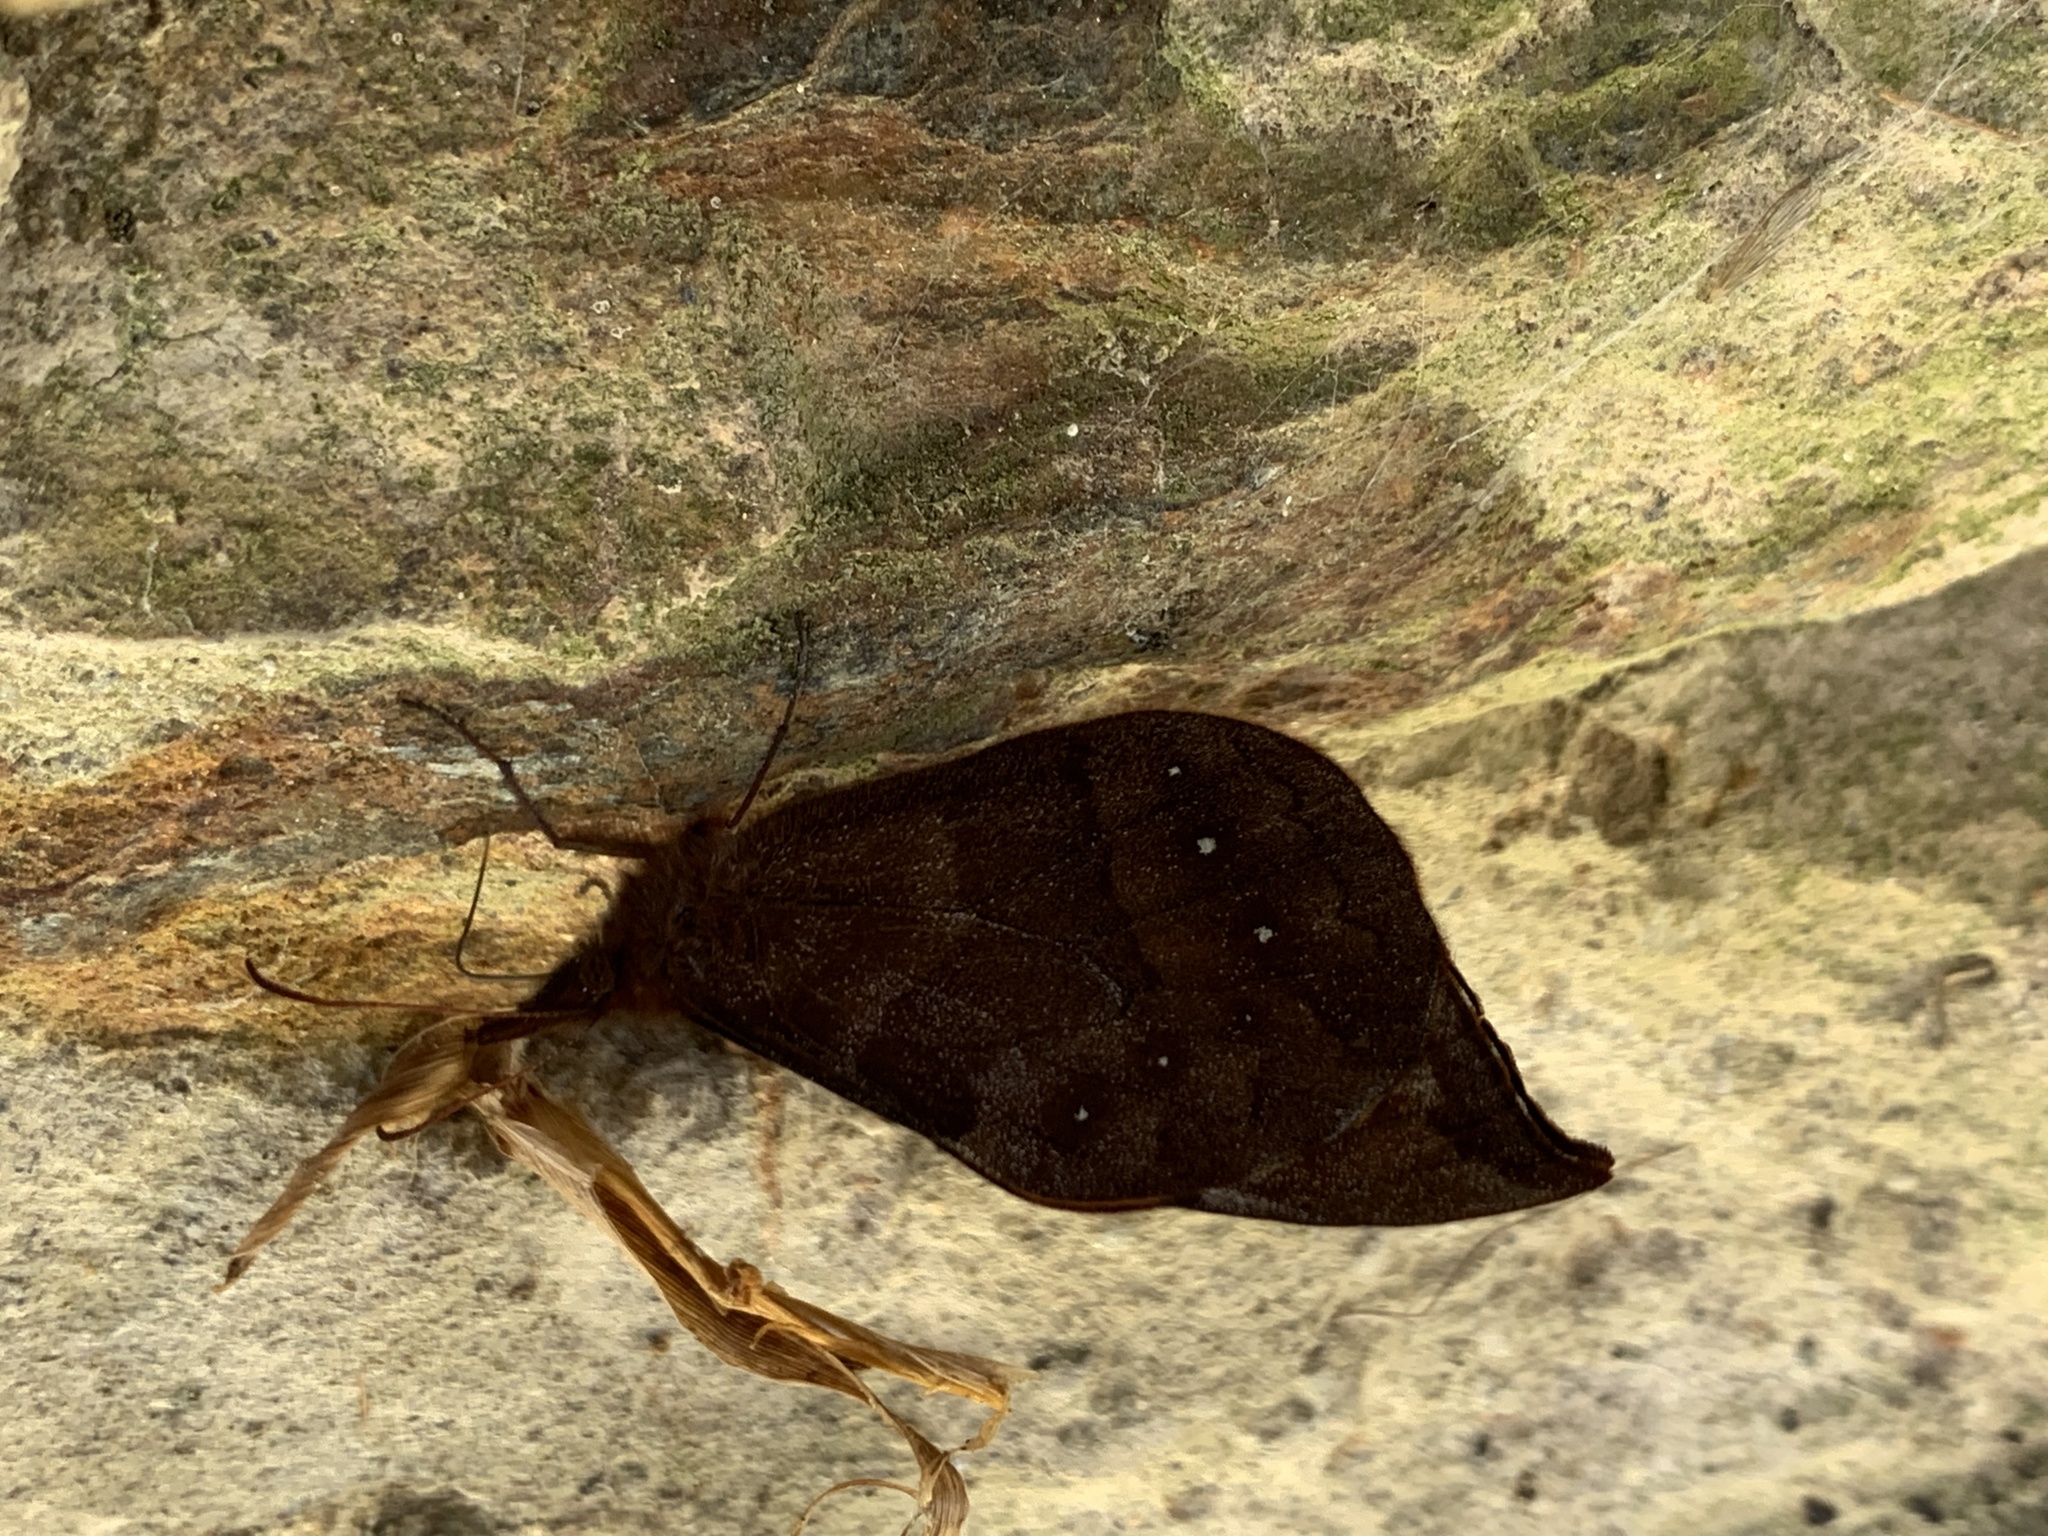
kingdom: Animalia
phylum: Arthropoda
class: Insecta
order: Lepidoptera
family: Nymphalidae
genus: Apexacuta
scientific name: Apexacuta orsedice
